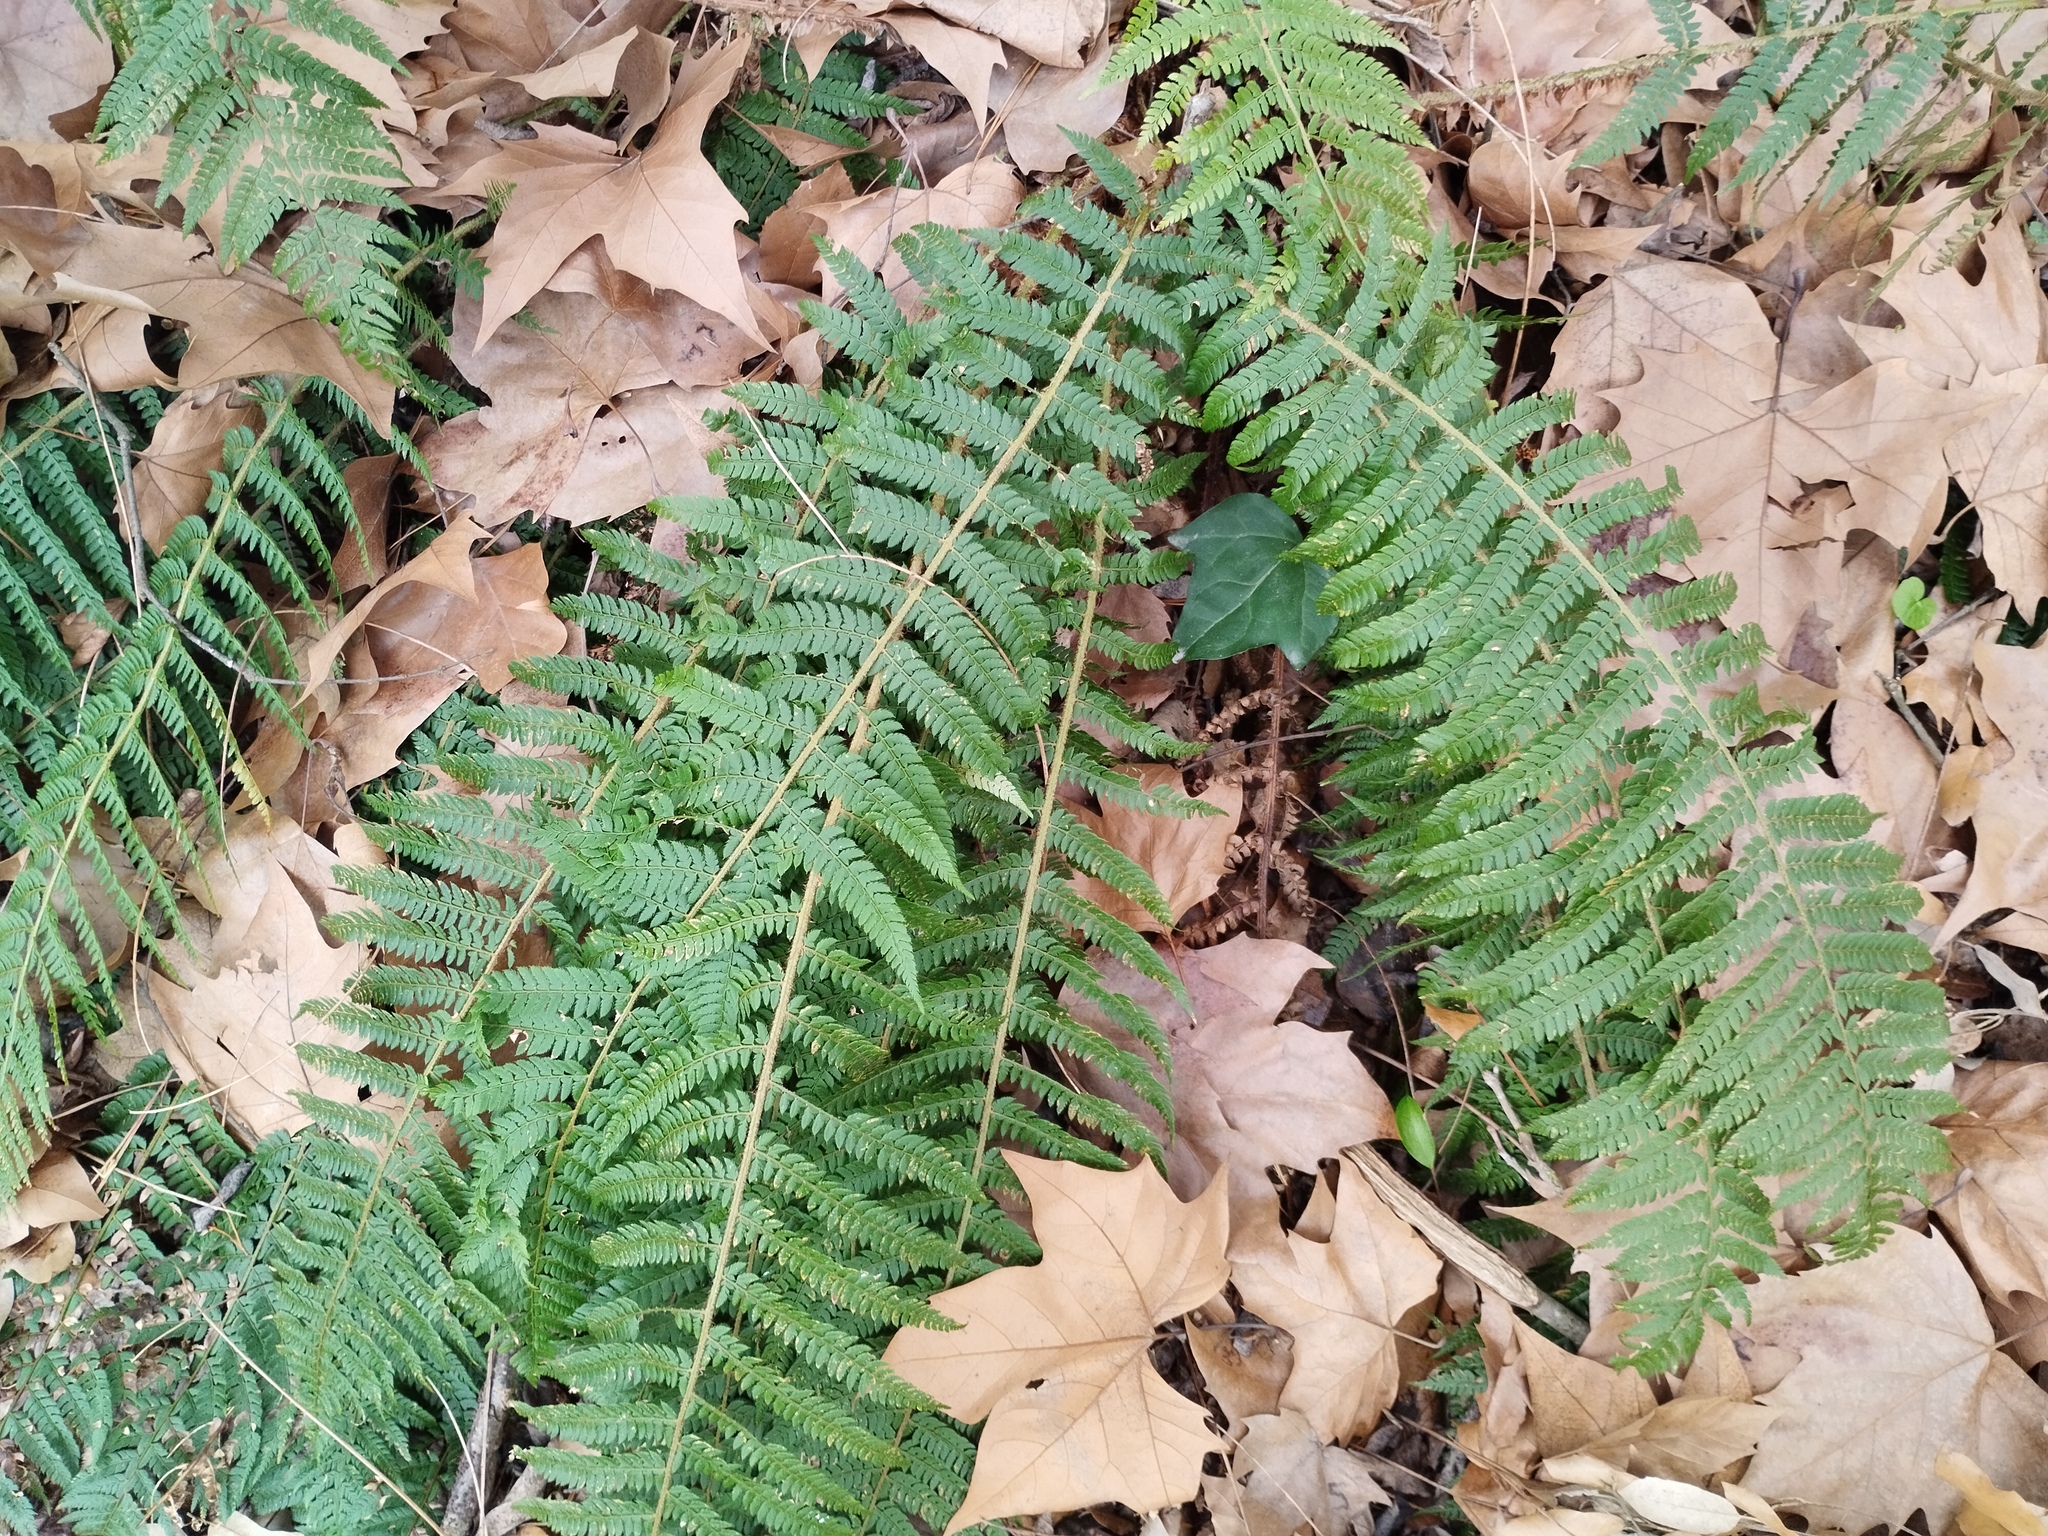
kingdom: Plantae
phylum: Tracheophyta
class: Polypodiopsida
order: Polypodiales
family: Dryopteridaceae
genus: Polystichum
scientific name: Polystichum setiferum
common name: Soft shield-fern
